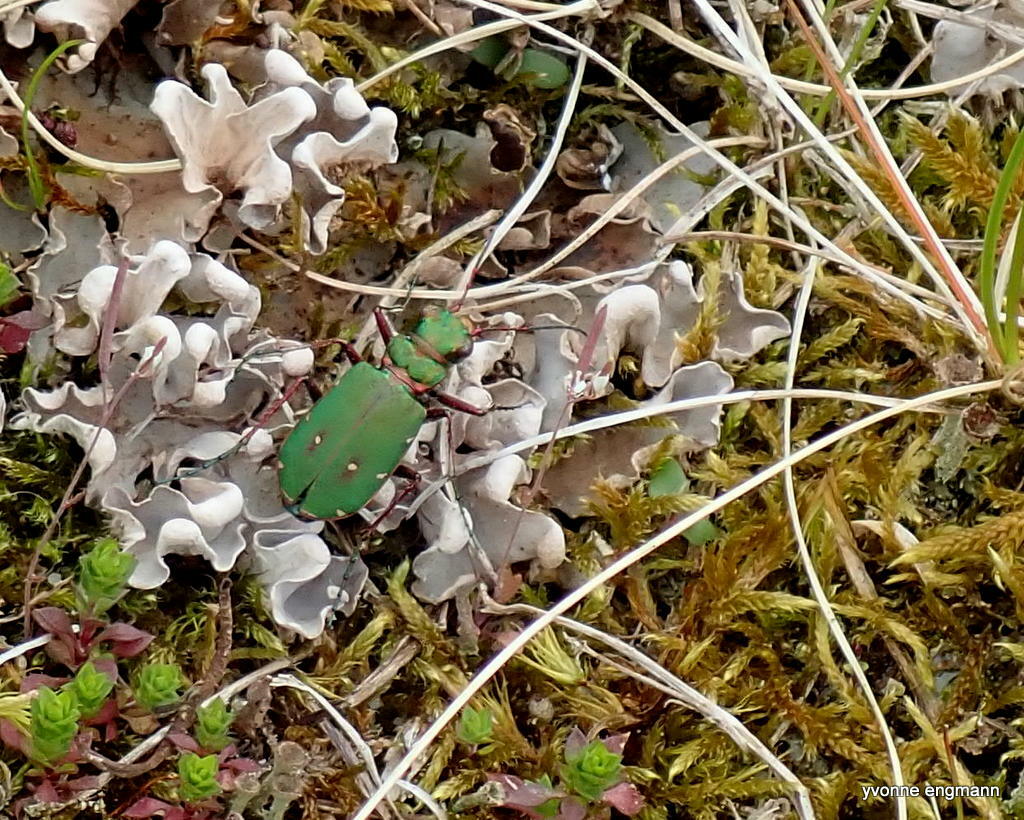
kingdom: Animalia
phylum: Arthropoda
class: Insecta
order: Coleoptera
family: Carabidae
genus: Cicindela
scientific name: Cicindela campestris
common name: Common tiger beetle
